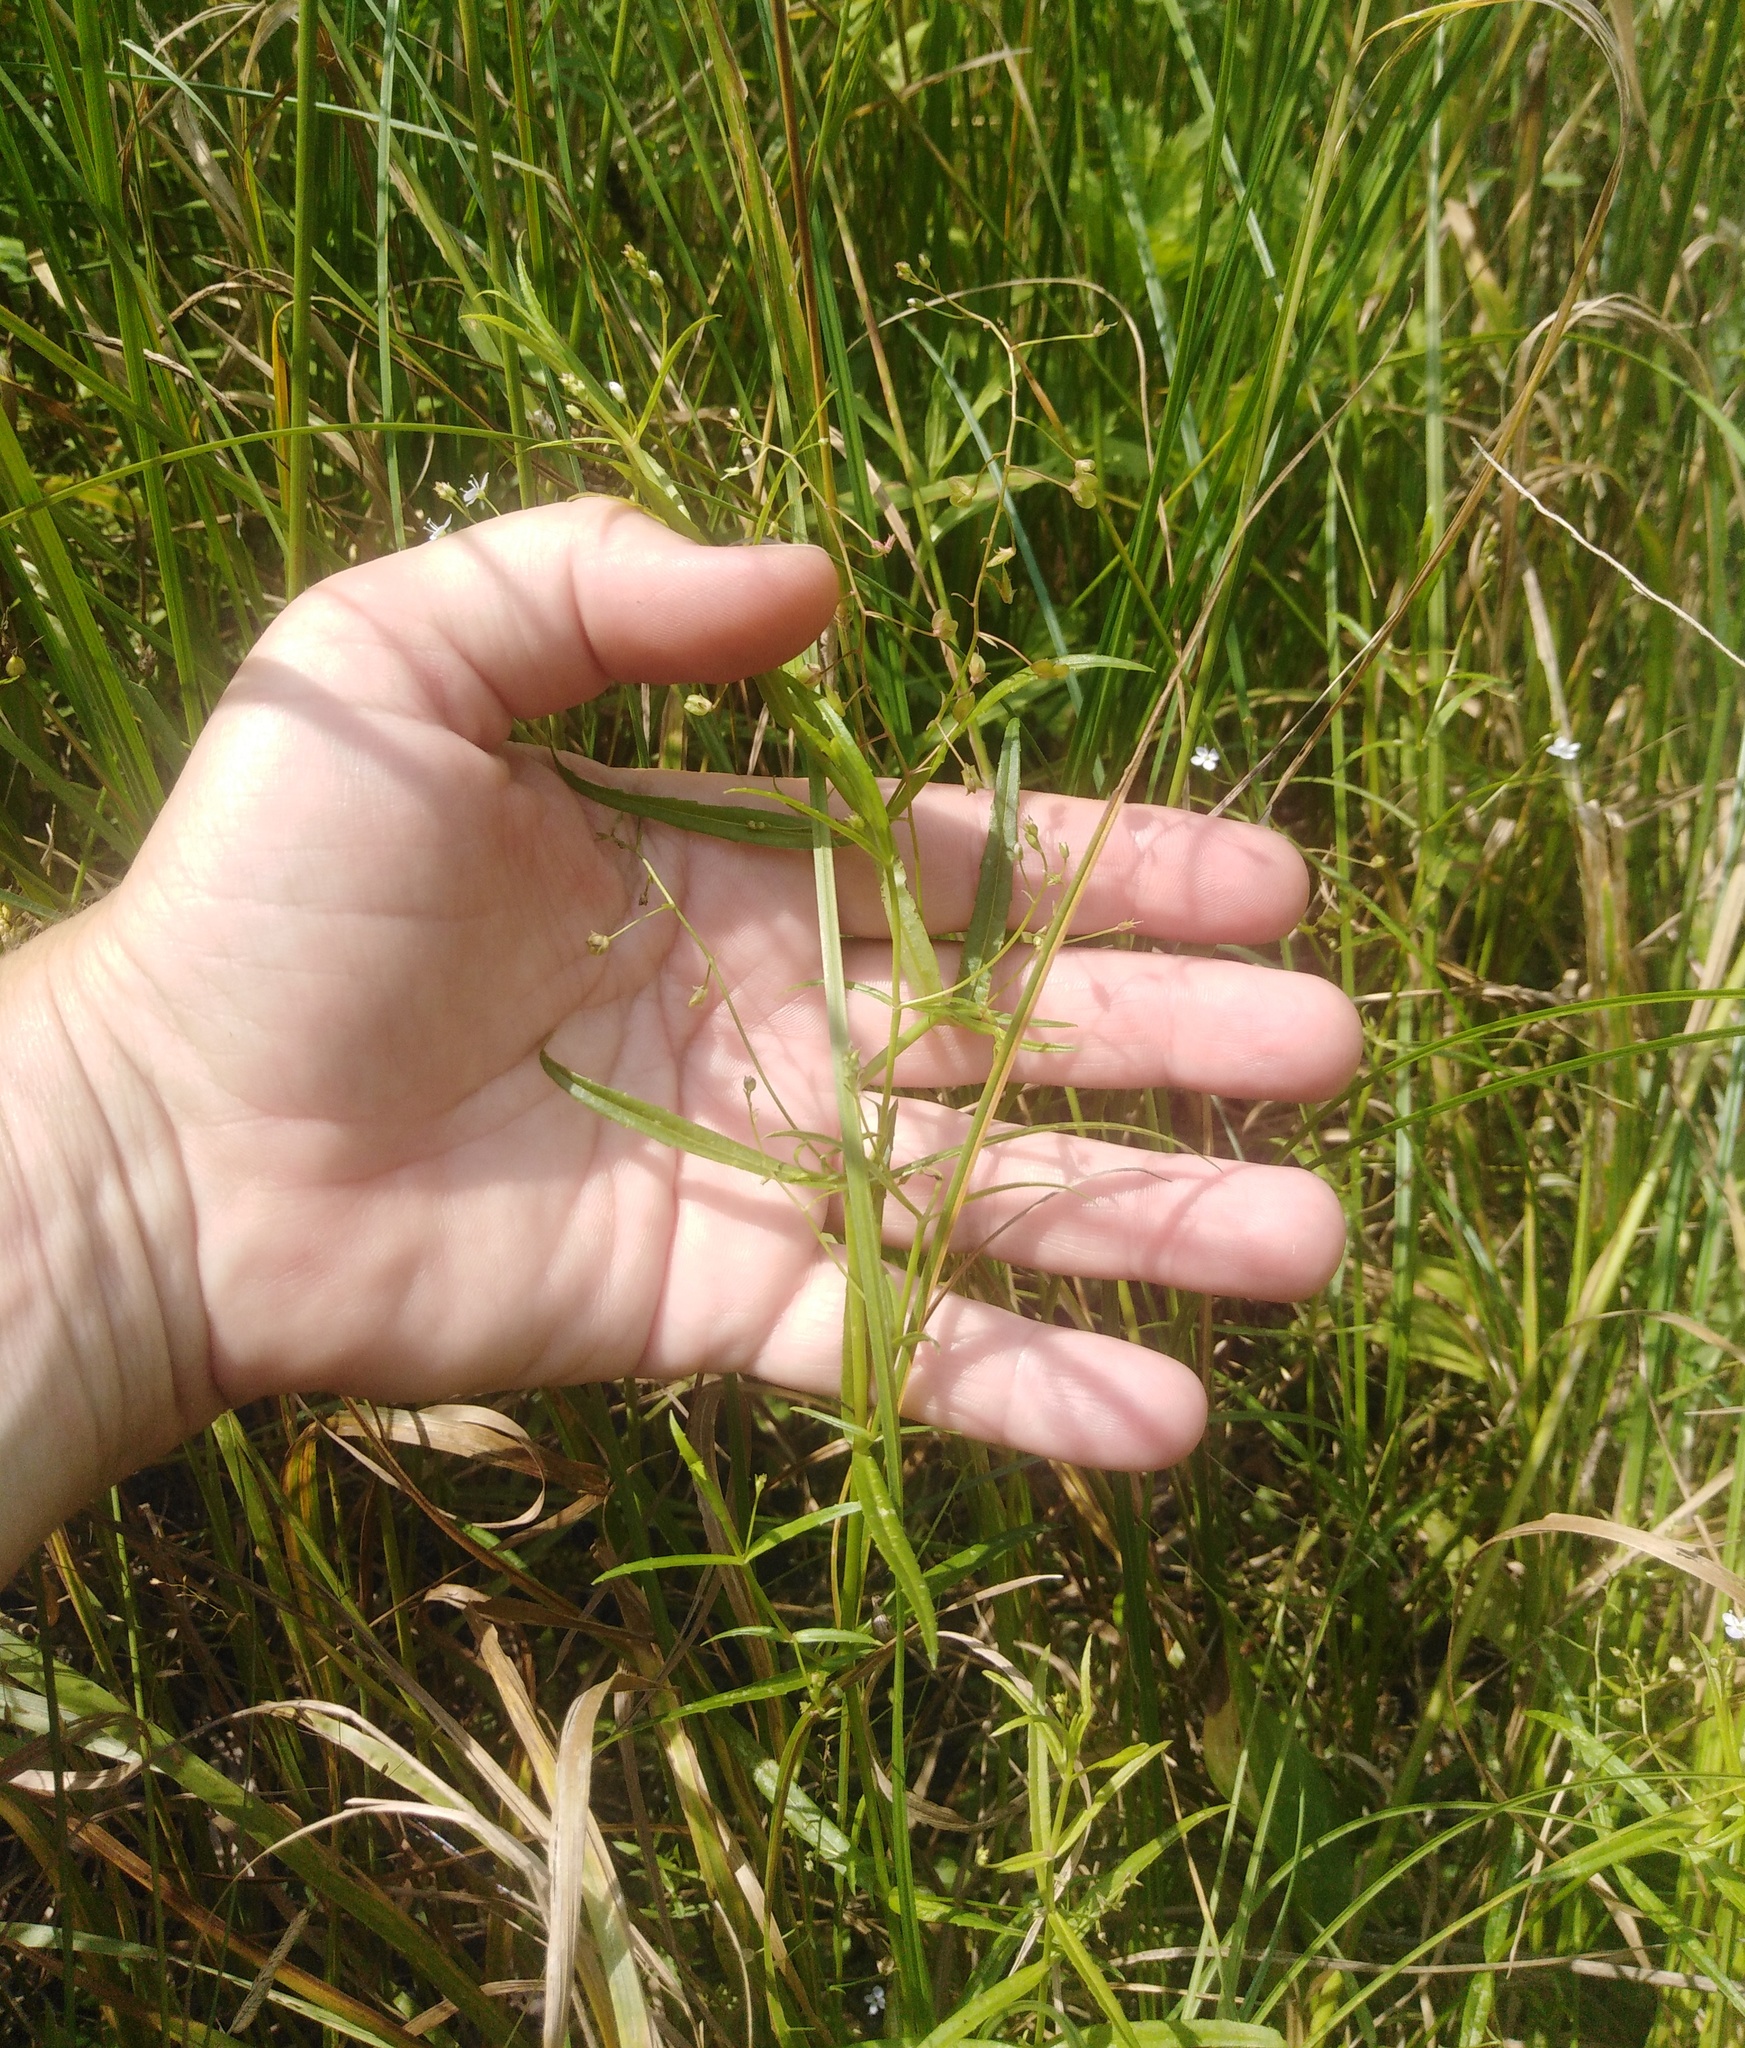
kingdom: Plantae
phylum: Tracheophyta
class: Magnoliopsida
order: Lamiales
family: Plantaginaceae
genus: Veronica
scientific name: Veronica scutellata
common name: Marsh speedwell
